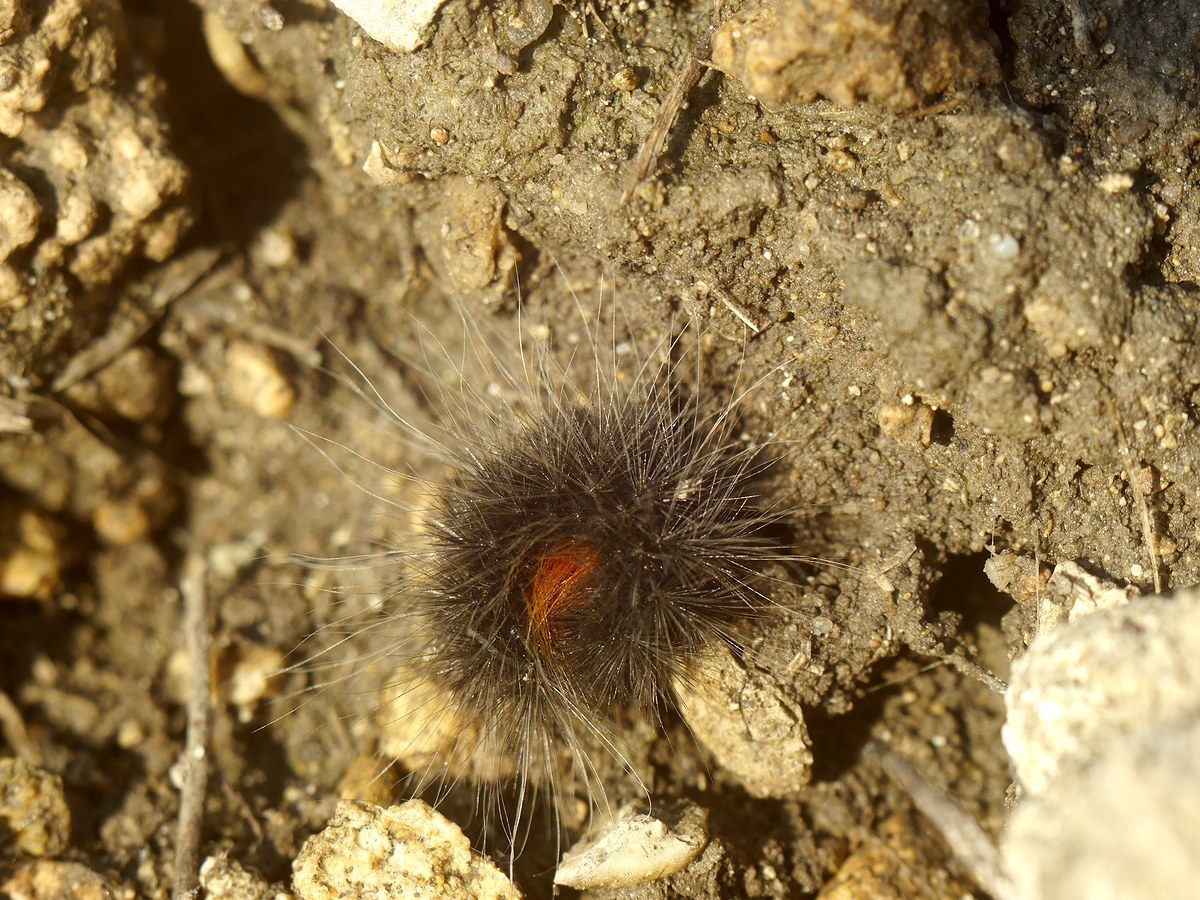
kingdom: Animalia
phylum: Arthropoda
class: Insecta
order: Lepidoptera
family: Erebidae
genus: Eucharia
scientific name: Eucharia festiva
